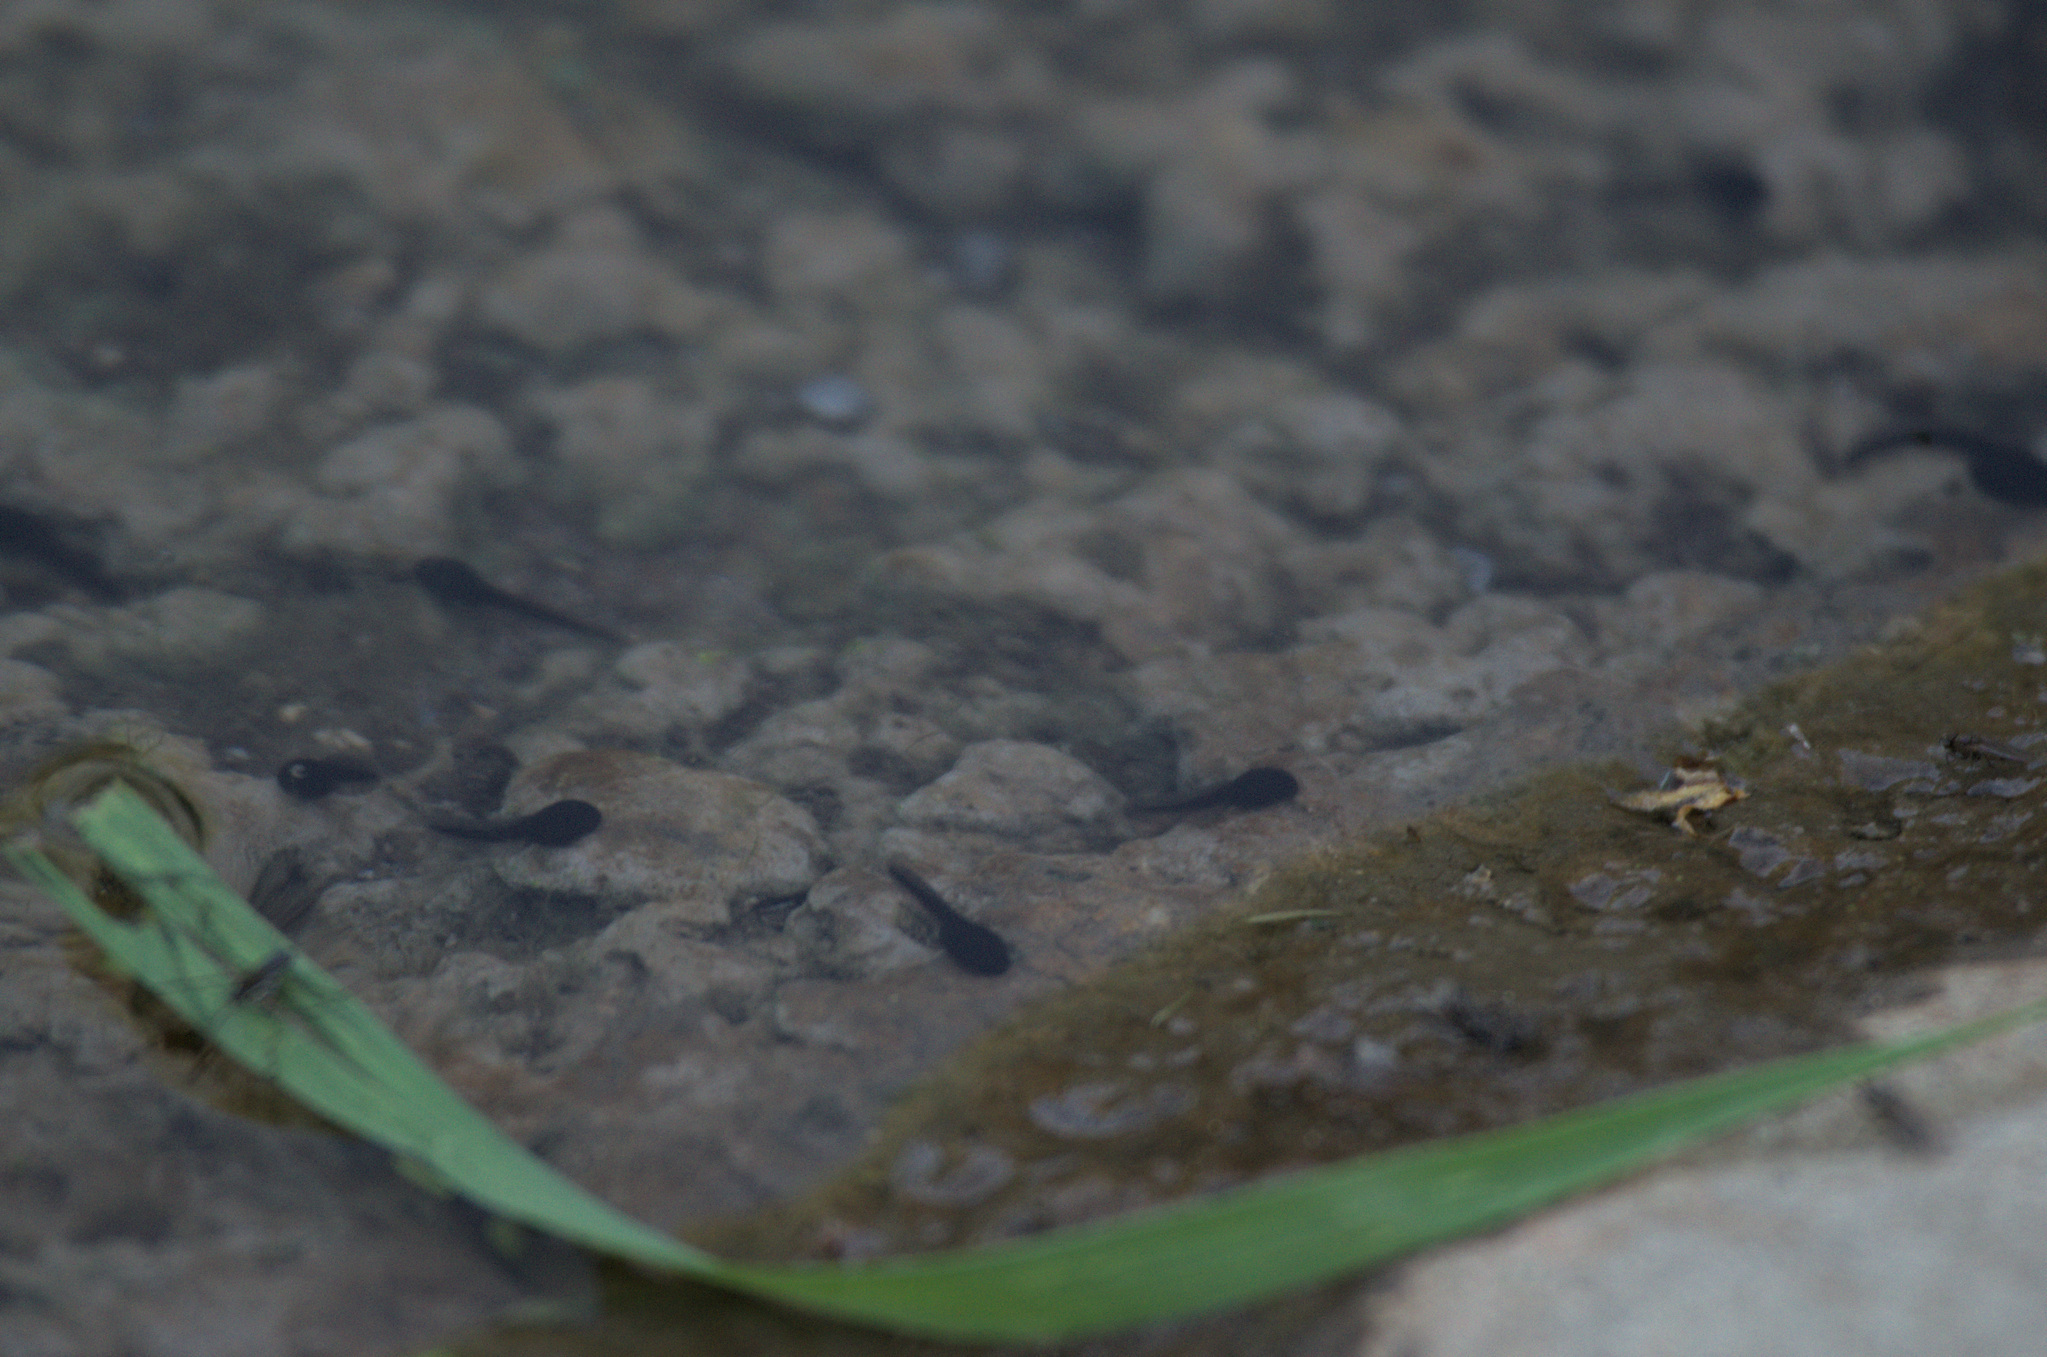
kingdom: Animalia
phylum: Chordata
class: Amphibia
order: Anura
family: Bufonidae
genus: Bufo
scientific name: Bufo bufo
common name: Common toad
